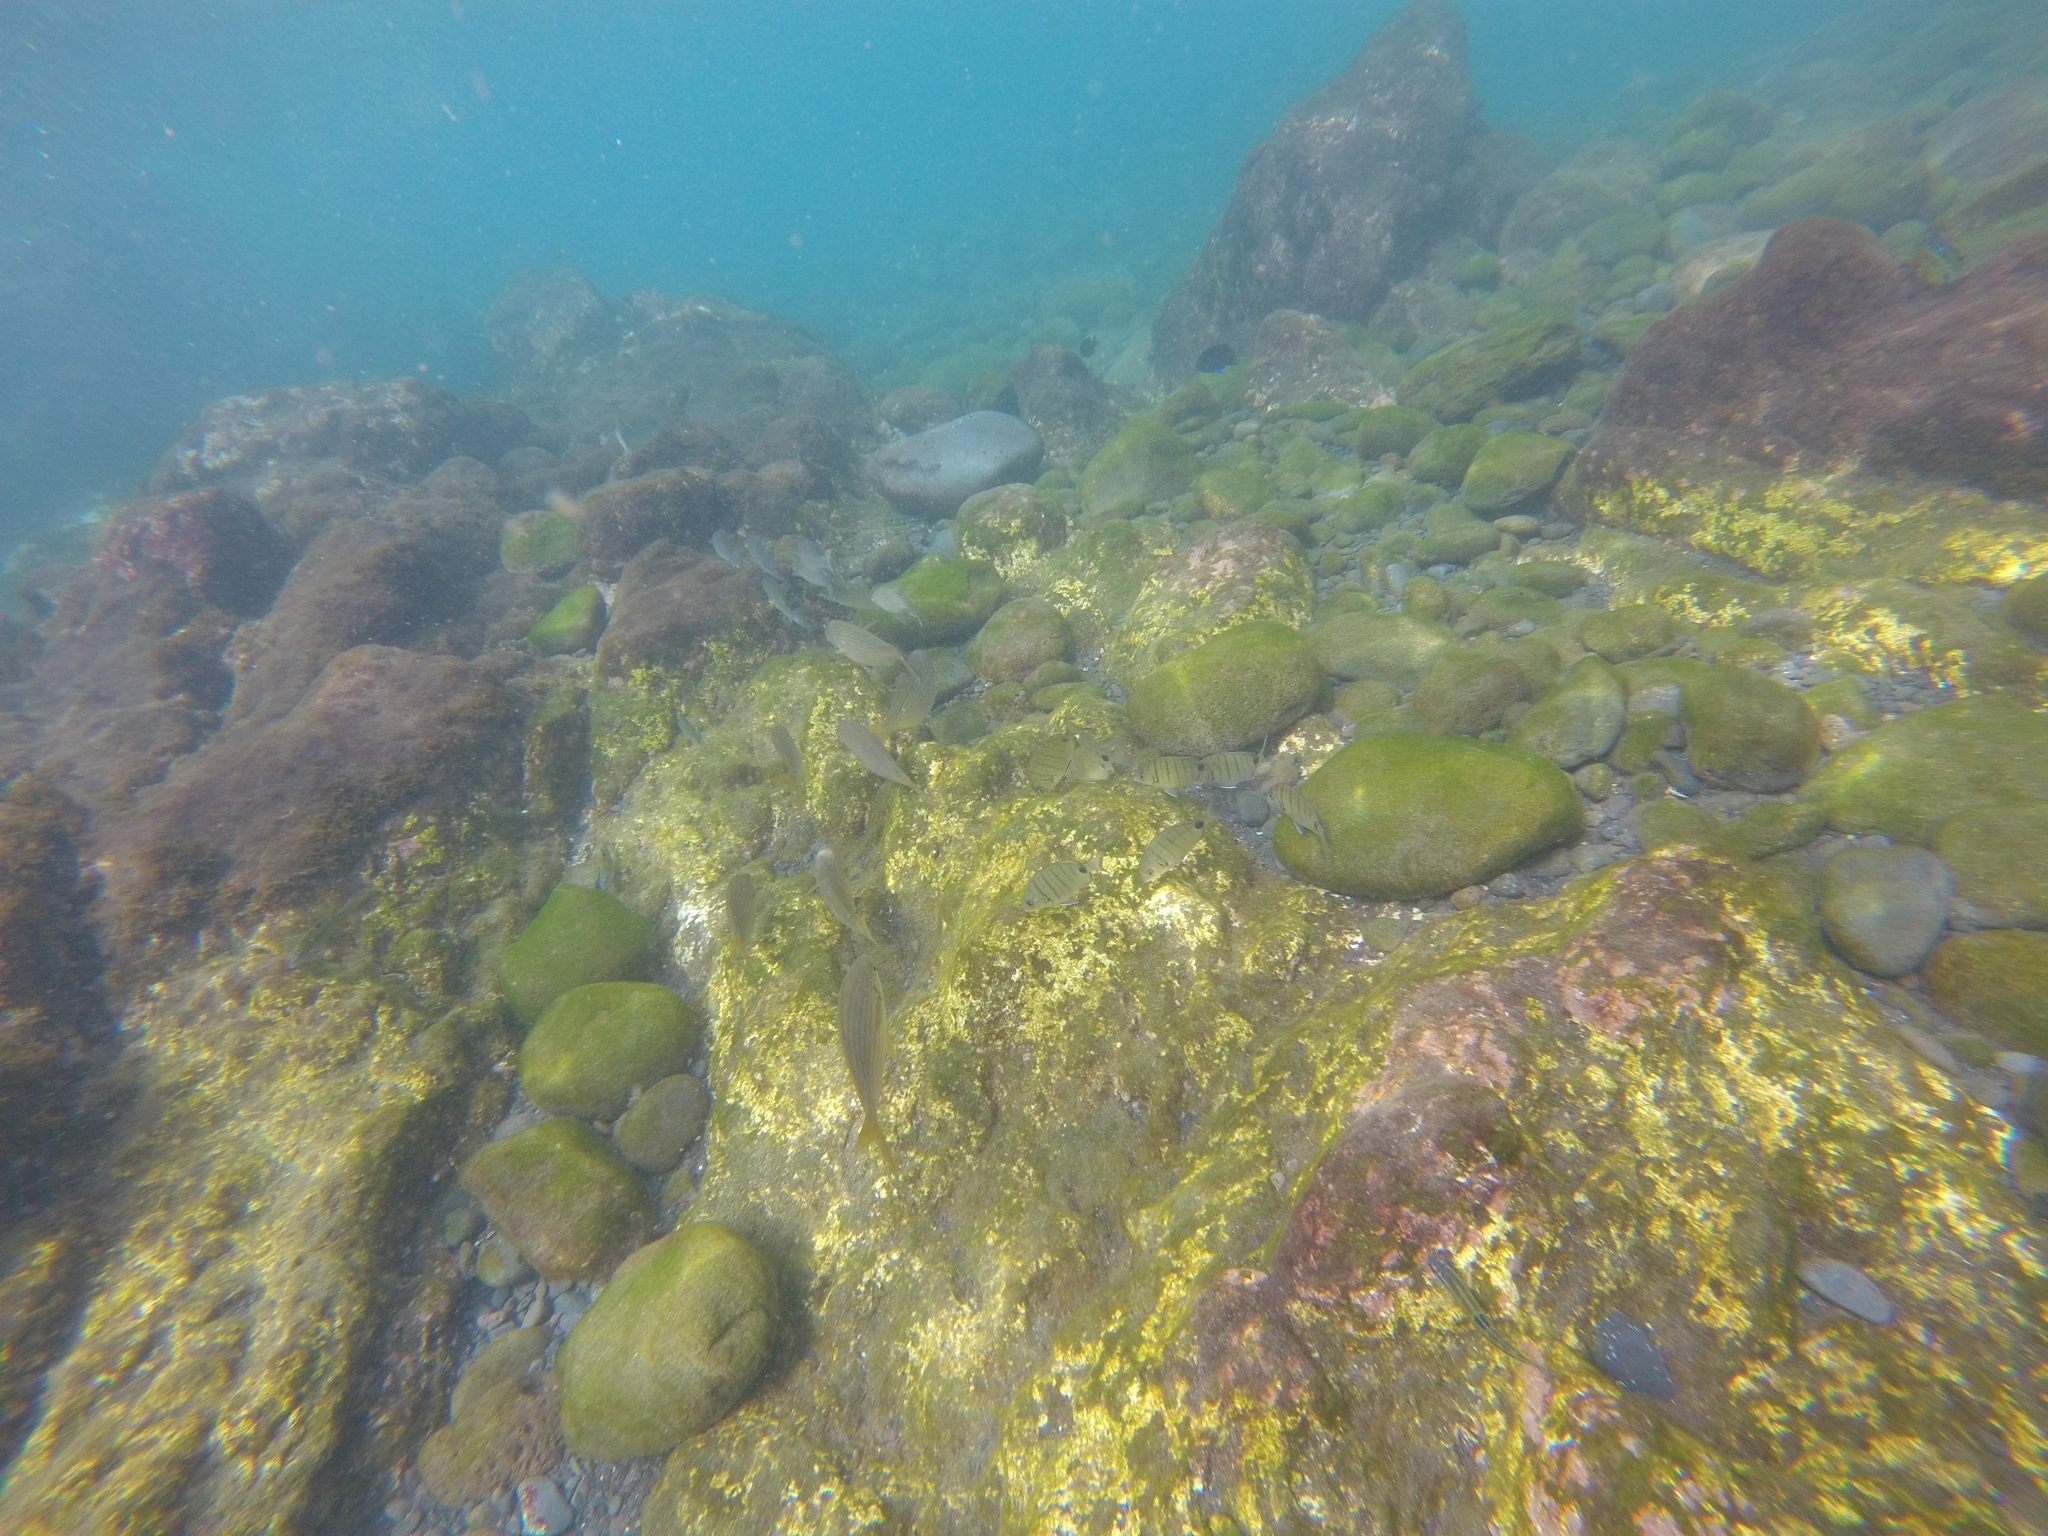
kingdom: Animalia
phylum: Chordata
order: Perciformes
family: Sparidae
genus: Diplodus
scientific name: Diplodus cadenati
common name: Moroccan white seabream
